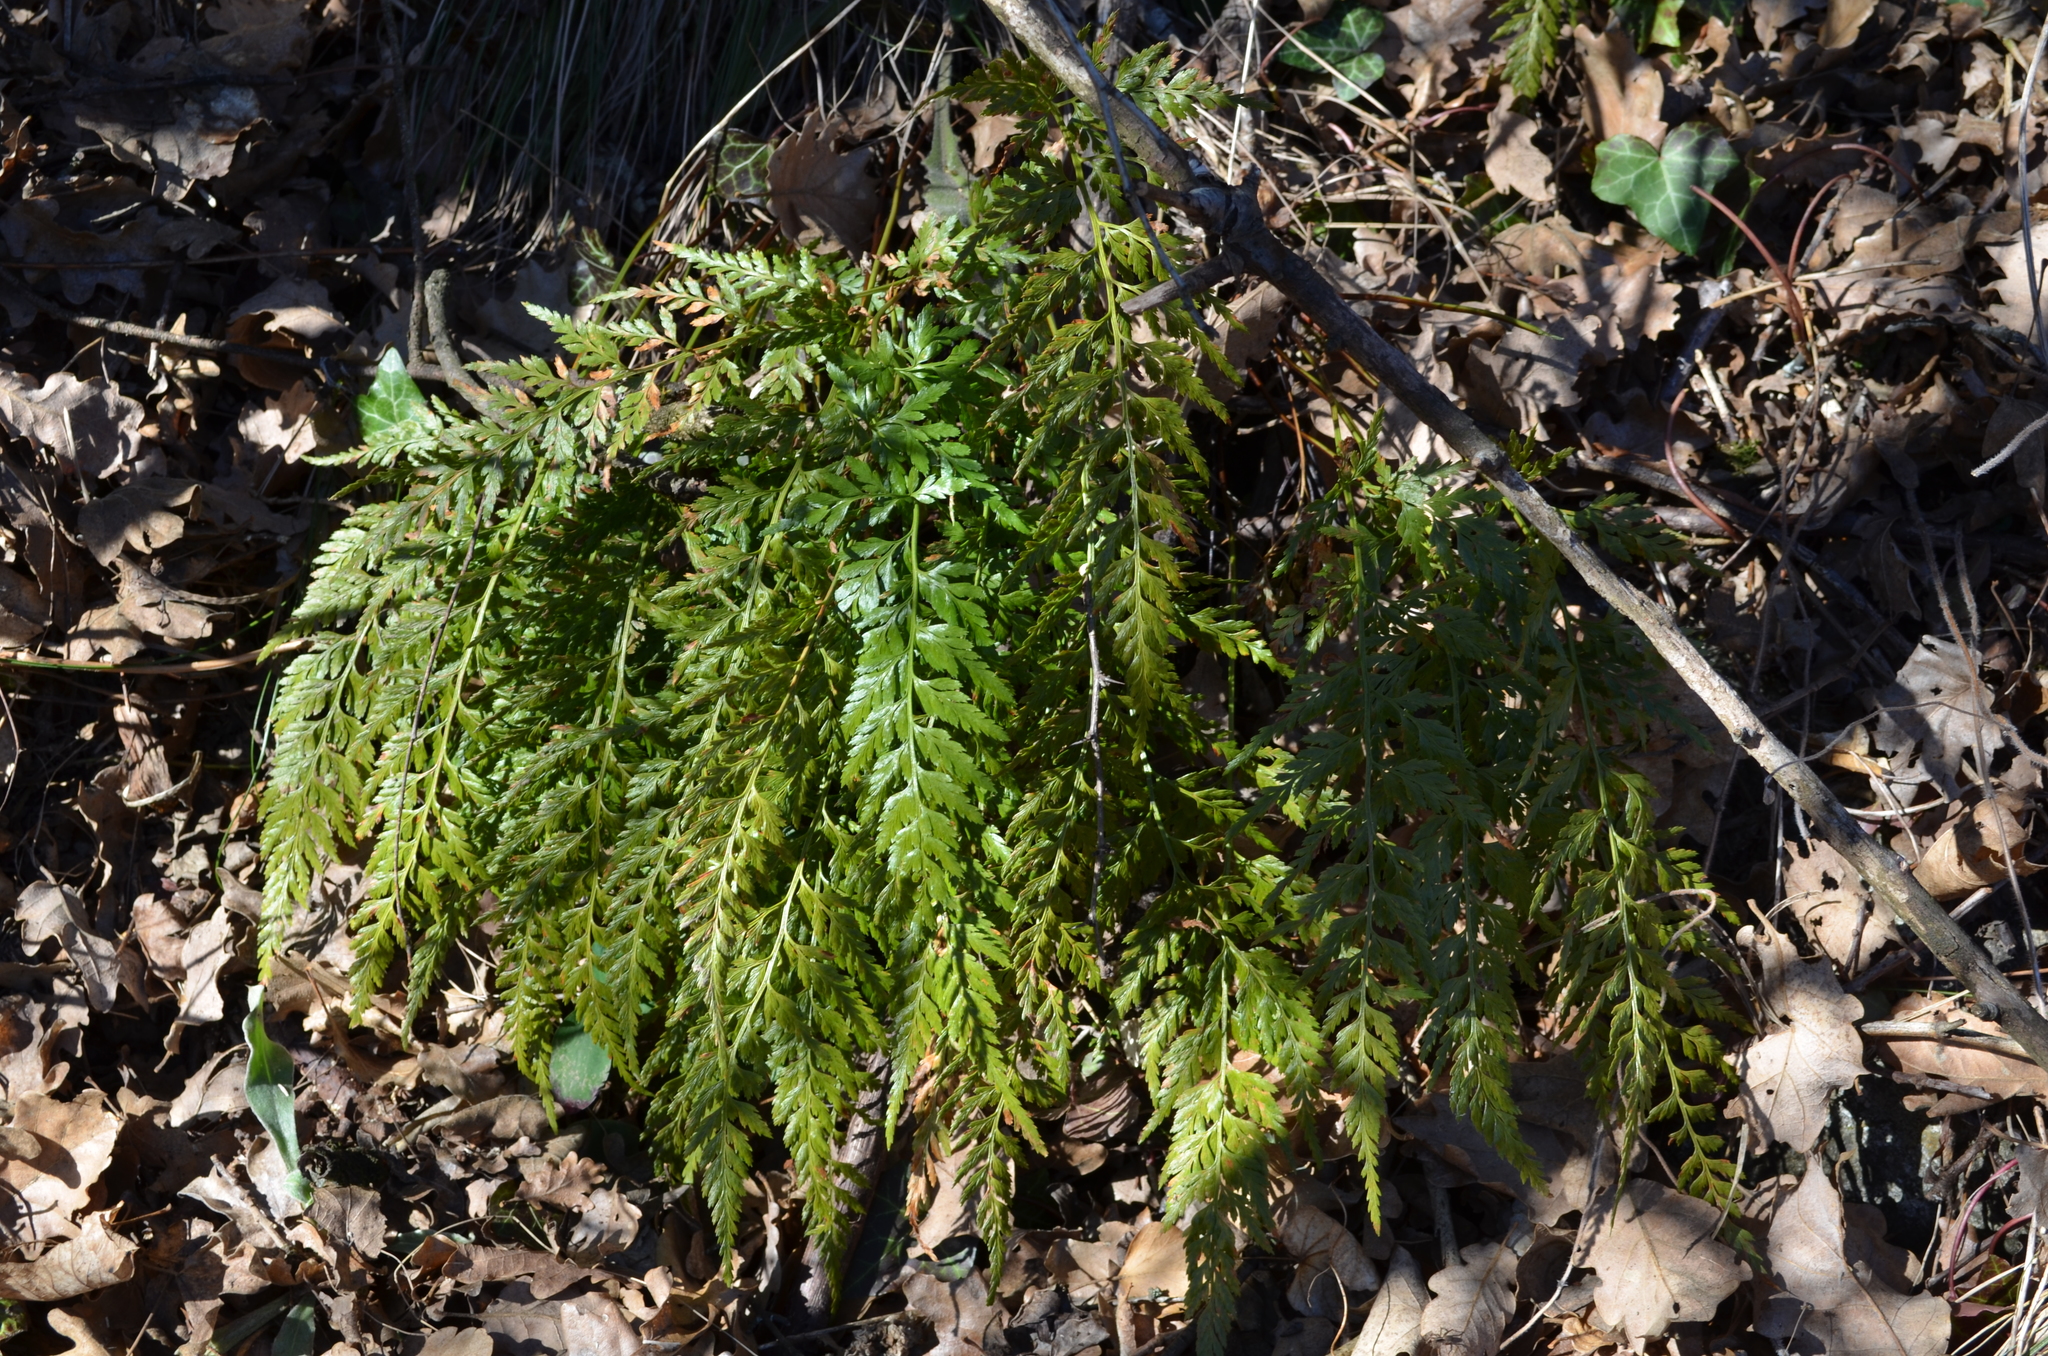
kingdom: Plantae
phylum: Tracheophyta
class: Polypodiopsida
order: Polypodiales
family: Aspleniaceae
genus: Asplenium
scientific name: Asplenium adiantum-nigrum
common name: Black spleenwort
